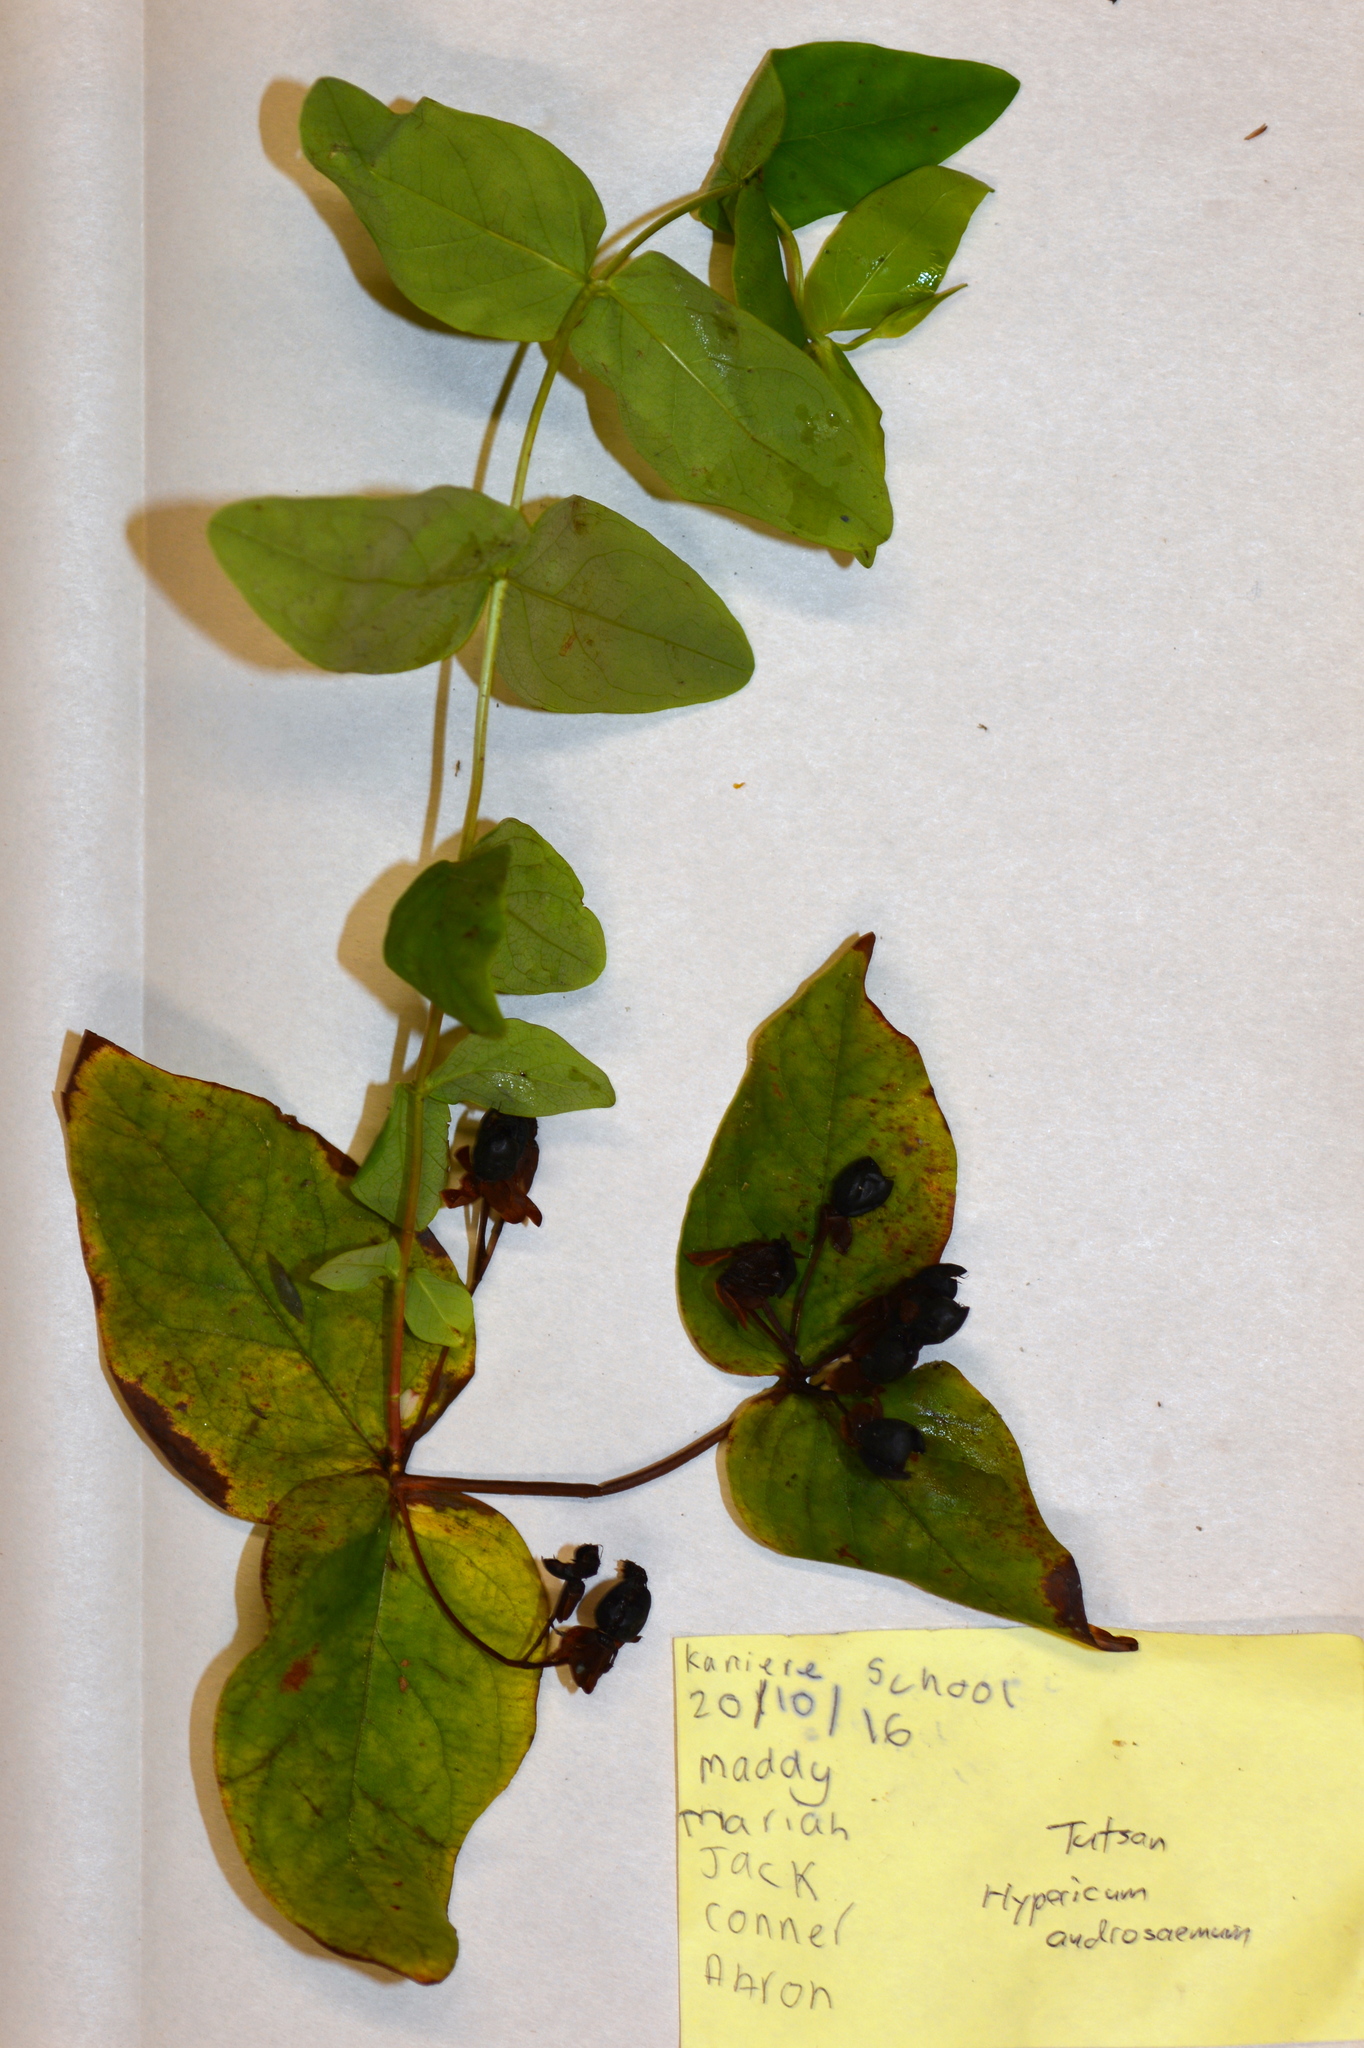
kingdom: Plantae
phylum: Tracheophyta
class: Magnoliopsida
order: Malpighiales
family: Hypericaceae
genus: Hypericum
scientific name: Hypericum androsaemum
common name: Sweet-amber
